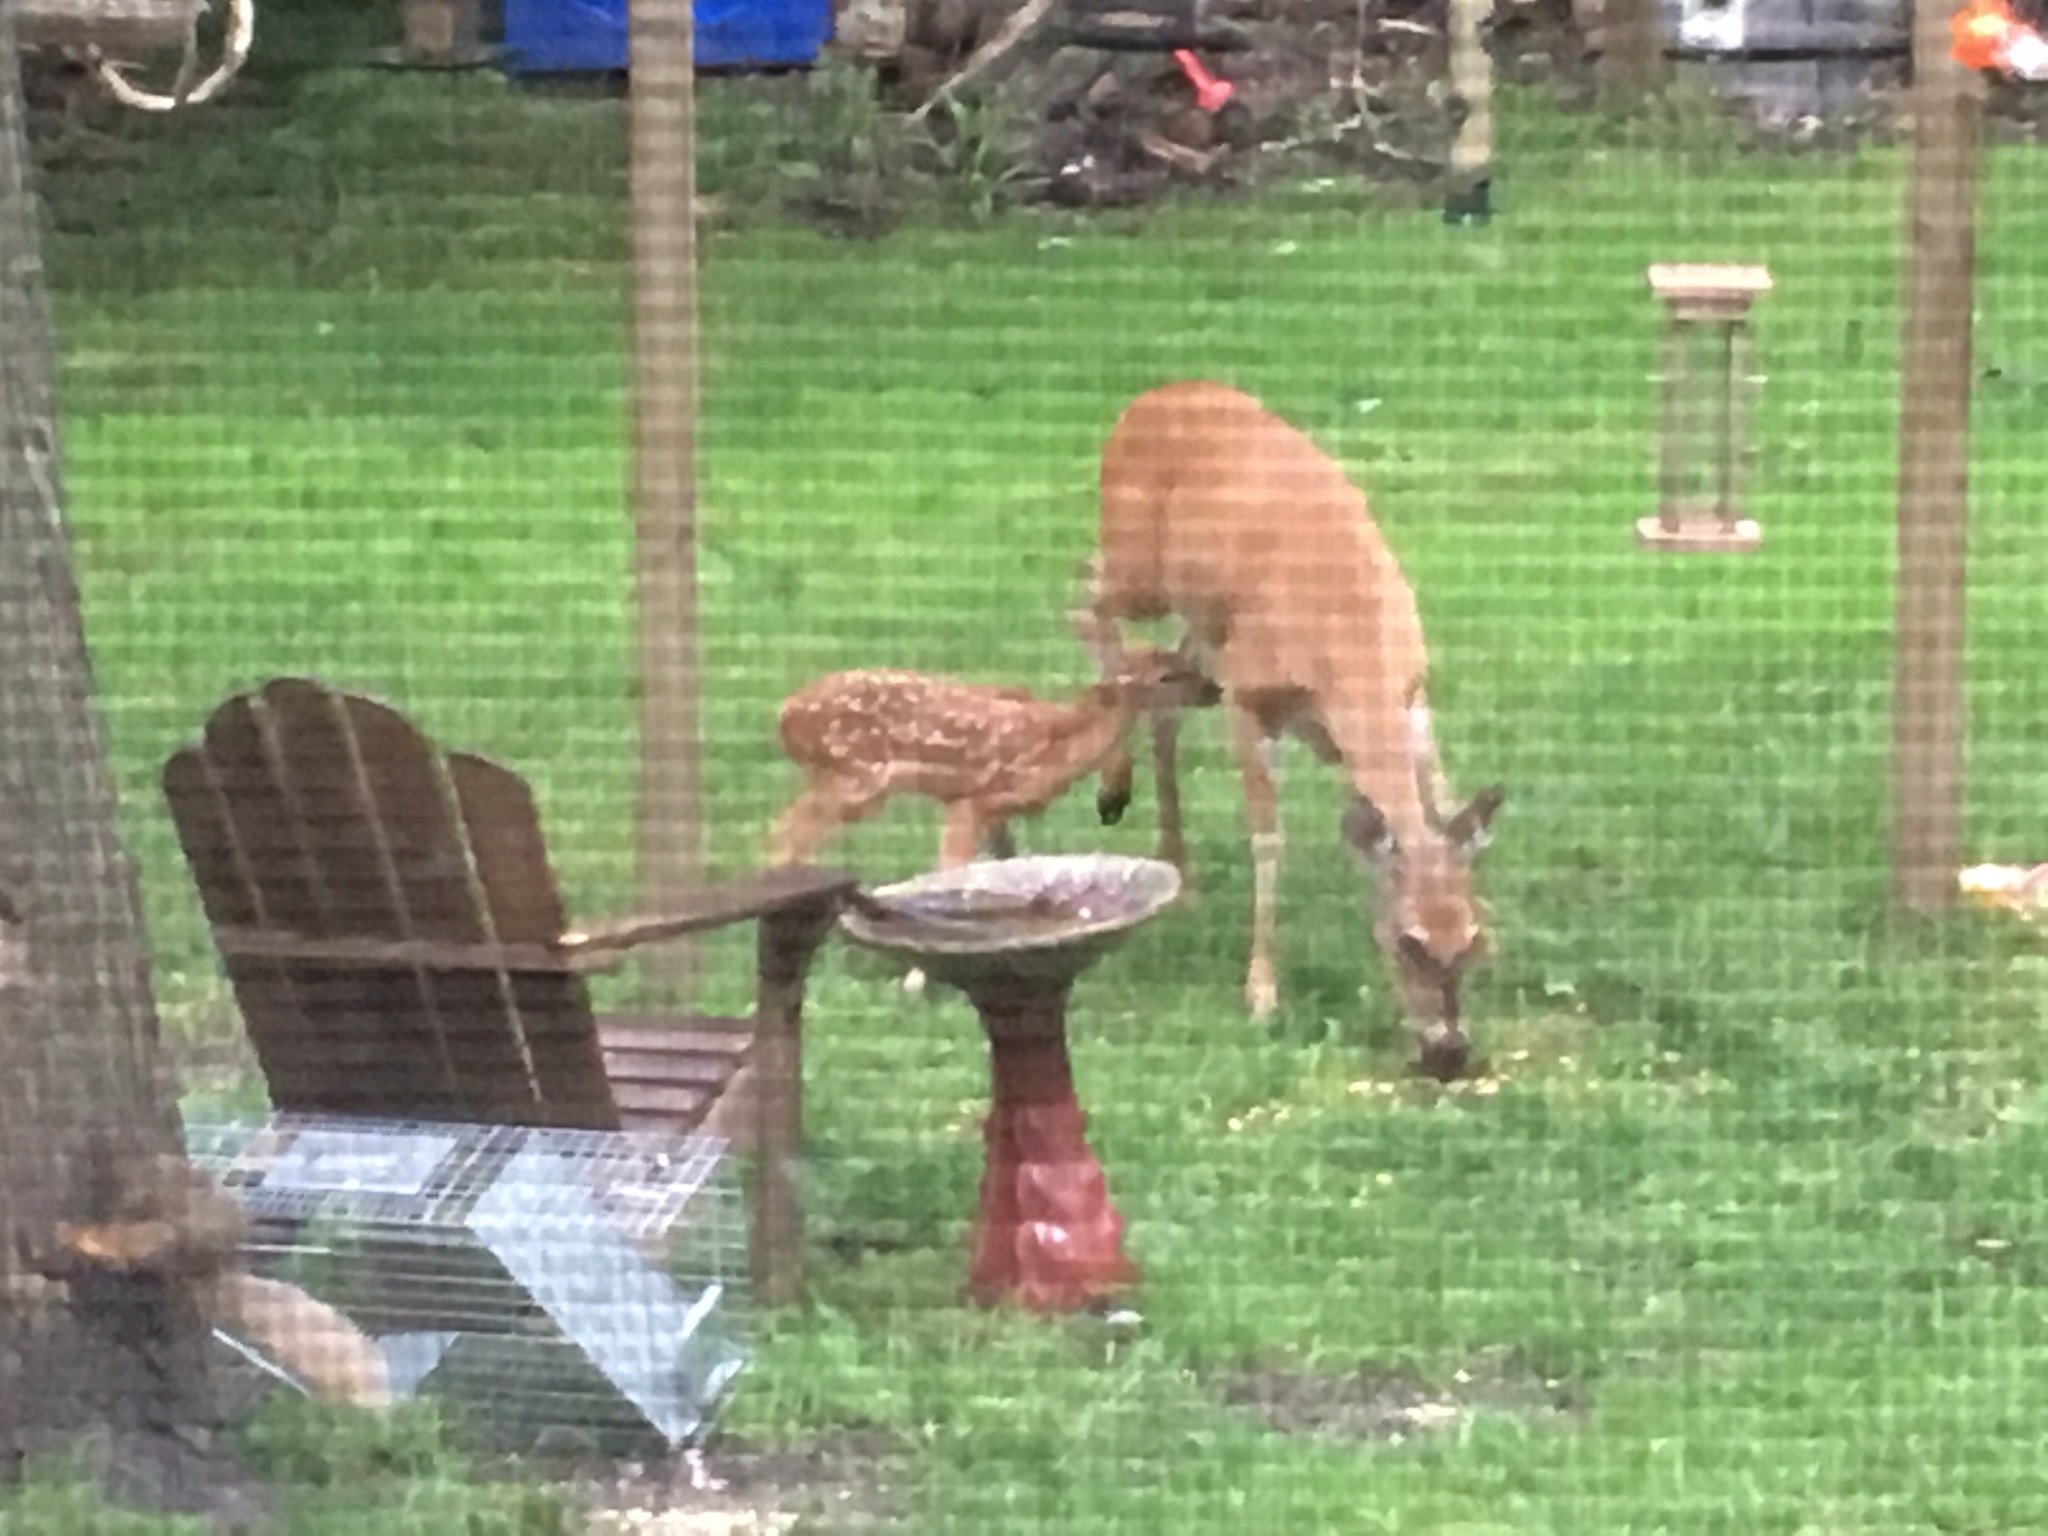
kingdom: Animalia
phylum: Chordata
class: Mammalia
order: Artiodactyla
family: Cervidae
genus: Odocoileus
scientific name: Odocoileus virginianus
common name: White-tailed deer
